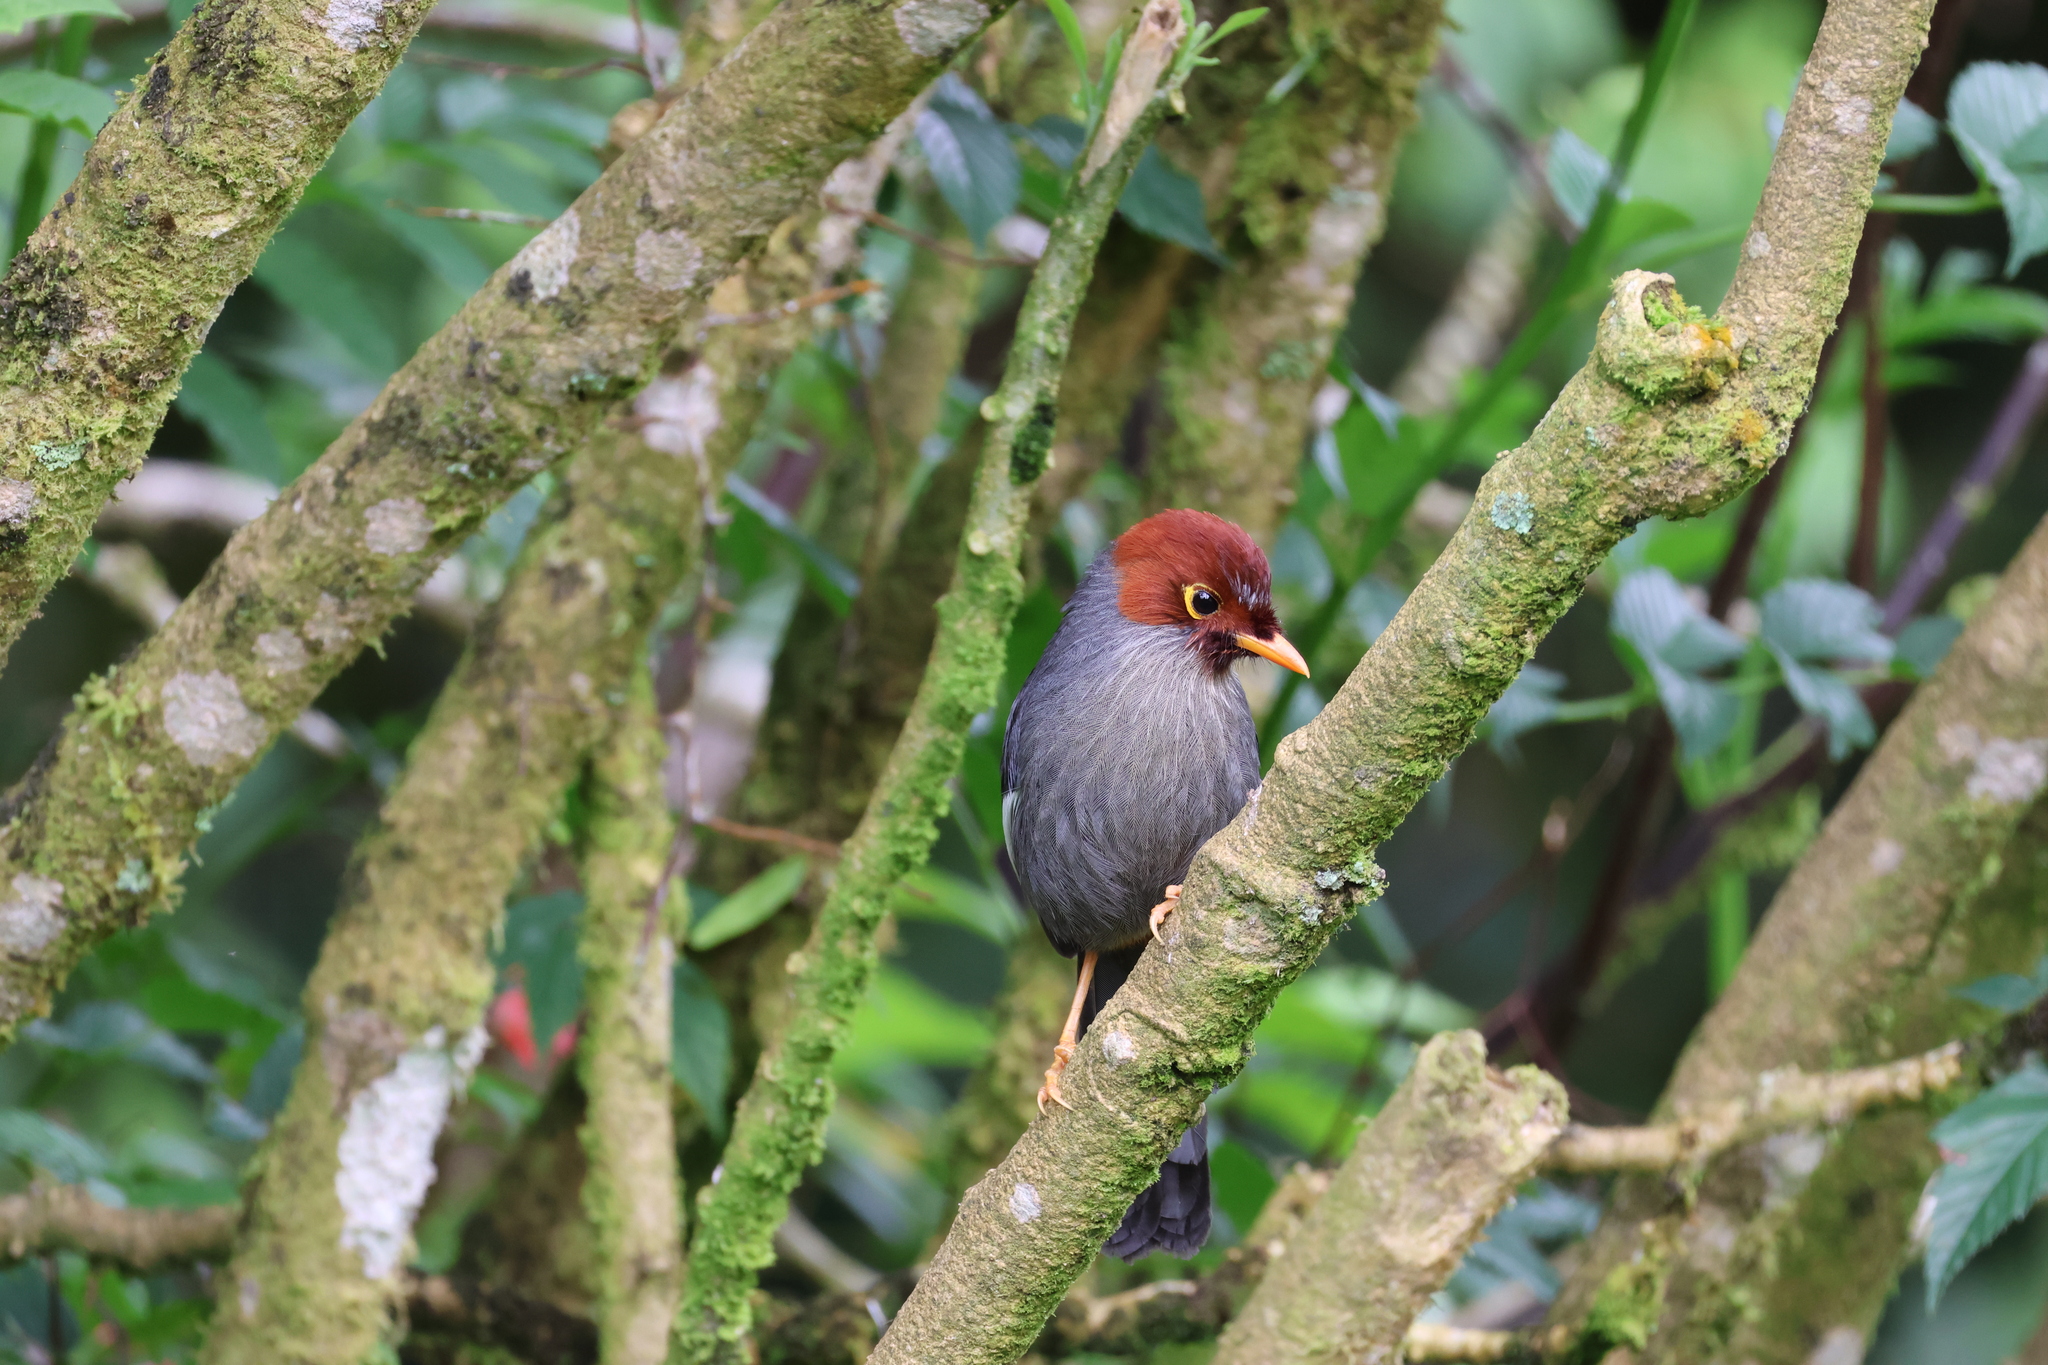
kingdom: Animalia
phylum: Chordata
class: Aves
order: Passeriformes
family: Leiothrichidae
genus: Garrulax
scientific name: Garrulax treacheri
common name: Chestnut-hooded laughingthrush
